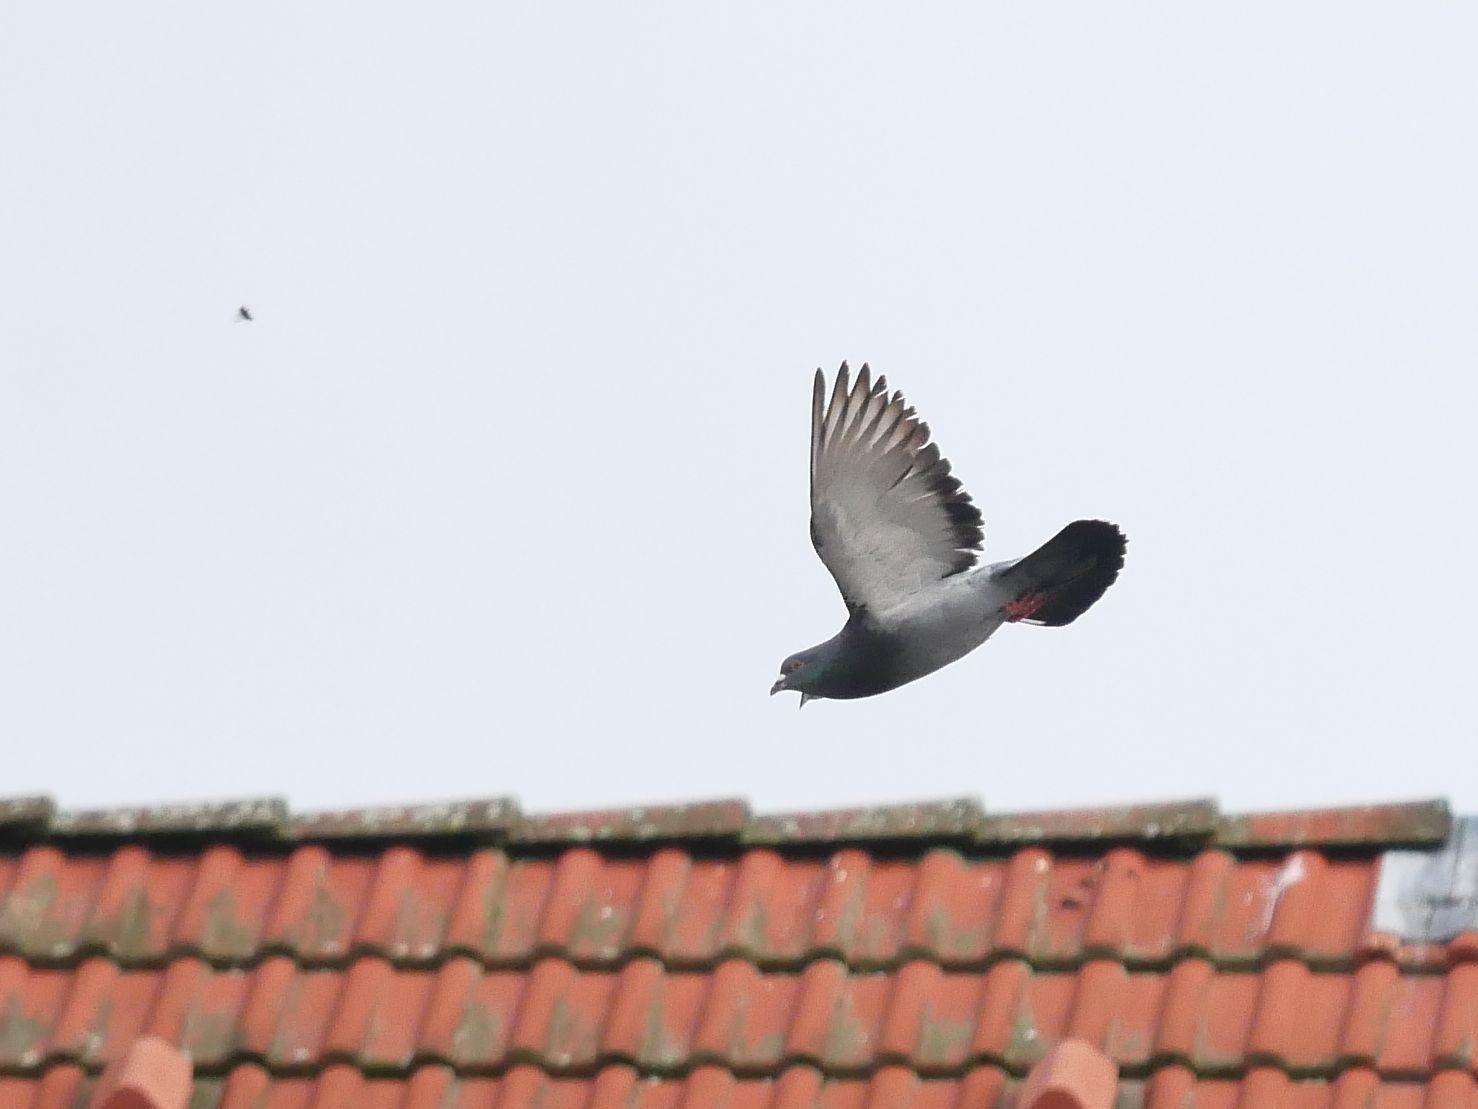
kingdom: Animalia
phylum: Chordata
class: Aves
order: Columbiformes
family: Columbidae
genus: Columba
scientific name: Columba livia
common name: Rock pigeon
